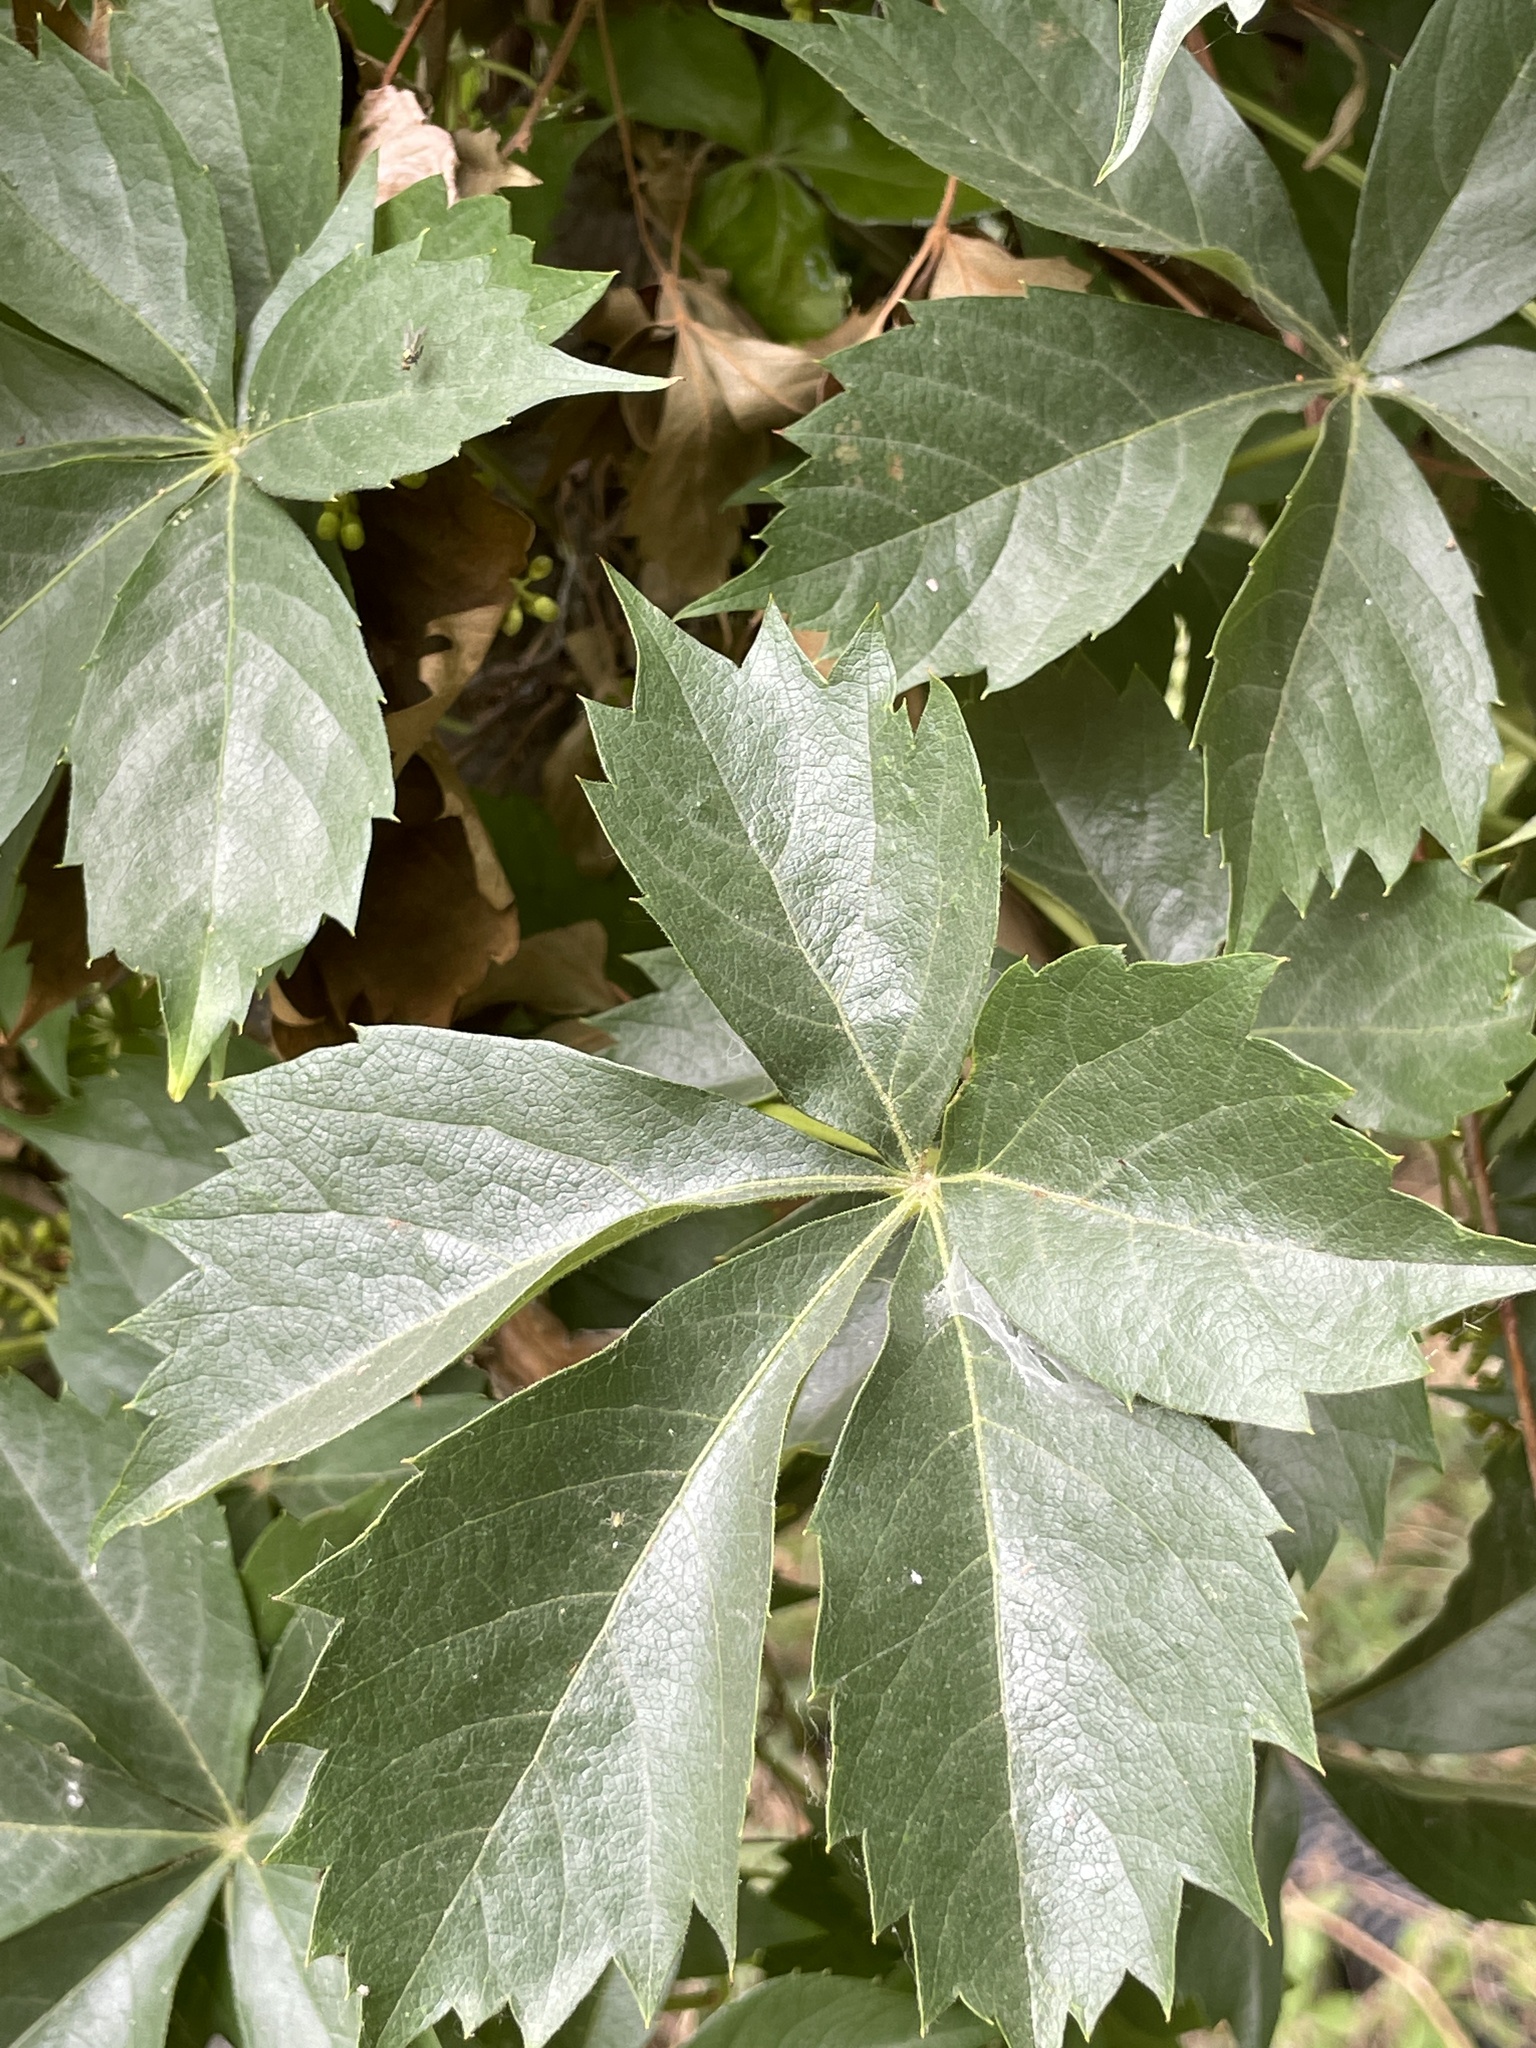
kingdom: Plantae
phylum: Tracheophyta
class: Magnoliopsida
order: Vitales
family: Vitaceae
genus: Parthenocissus
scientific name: Parthenocissus quinquefolia
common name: Virginia-creeper
